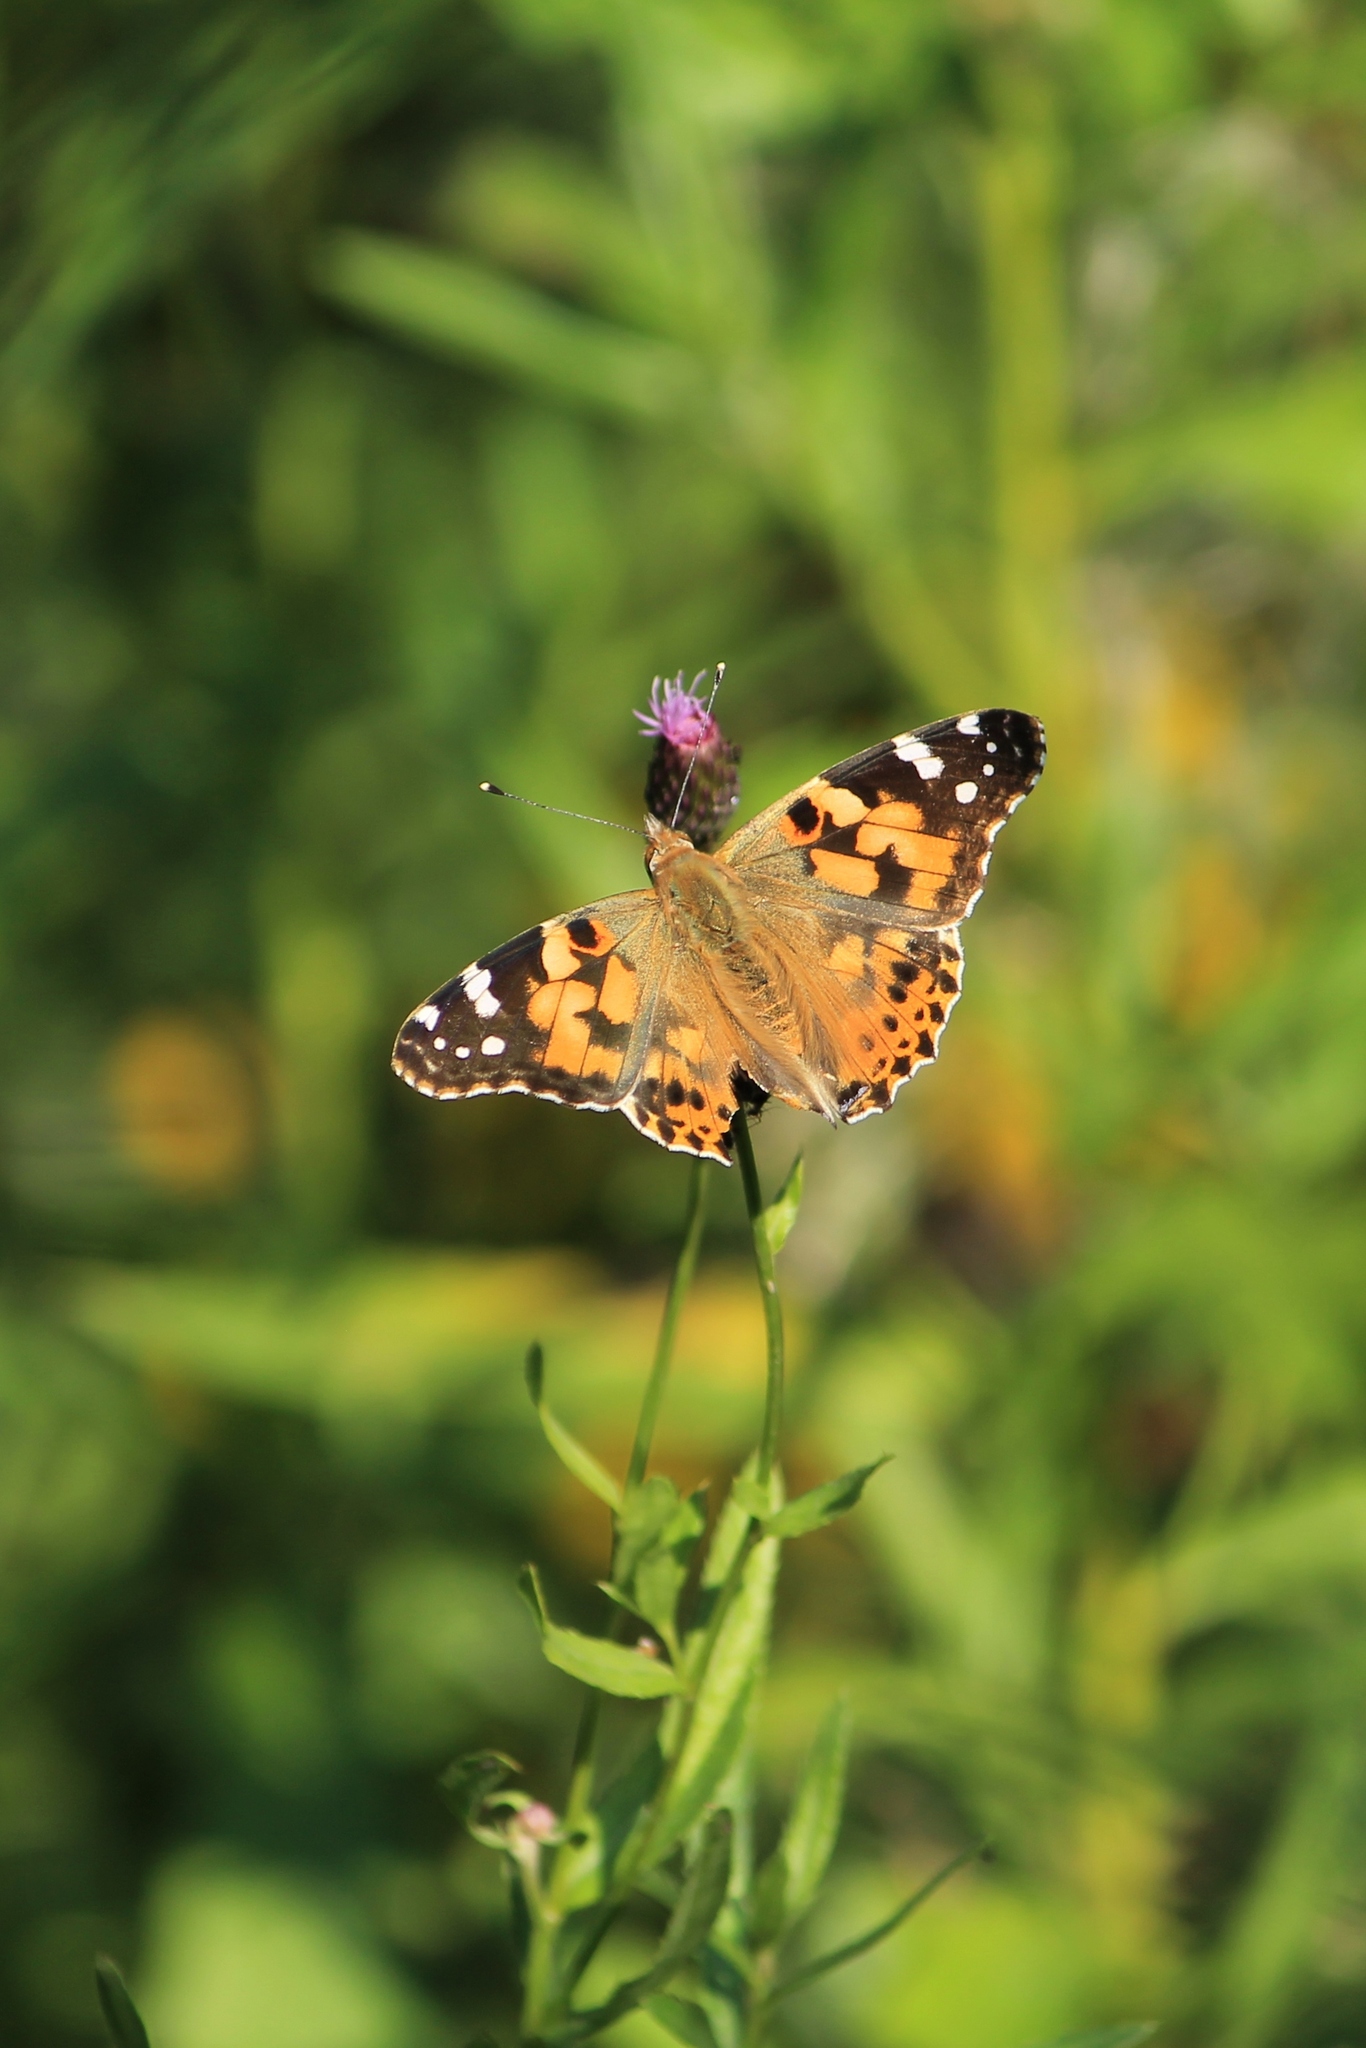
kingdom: Animalia
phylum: Arthropoda
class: Insecta
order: Lepidoptera
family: Nymphalidae
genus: Vanessa
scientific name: Vanessa cardui
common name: Painted lady
